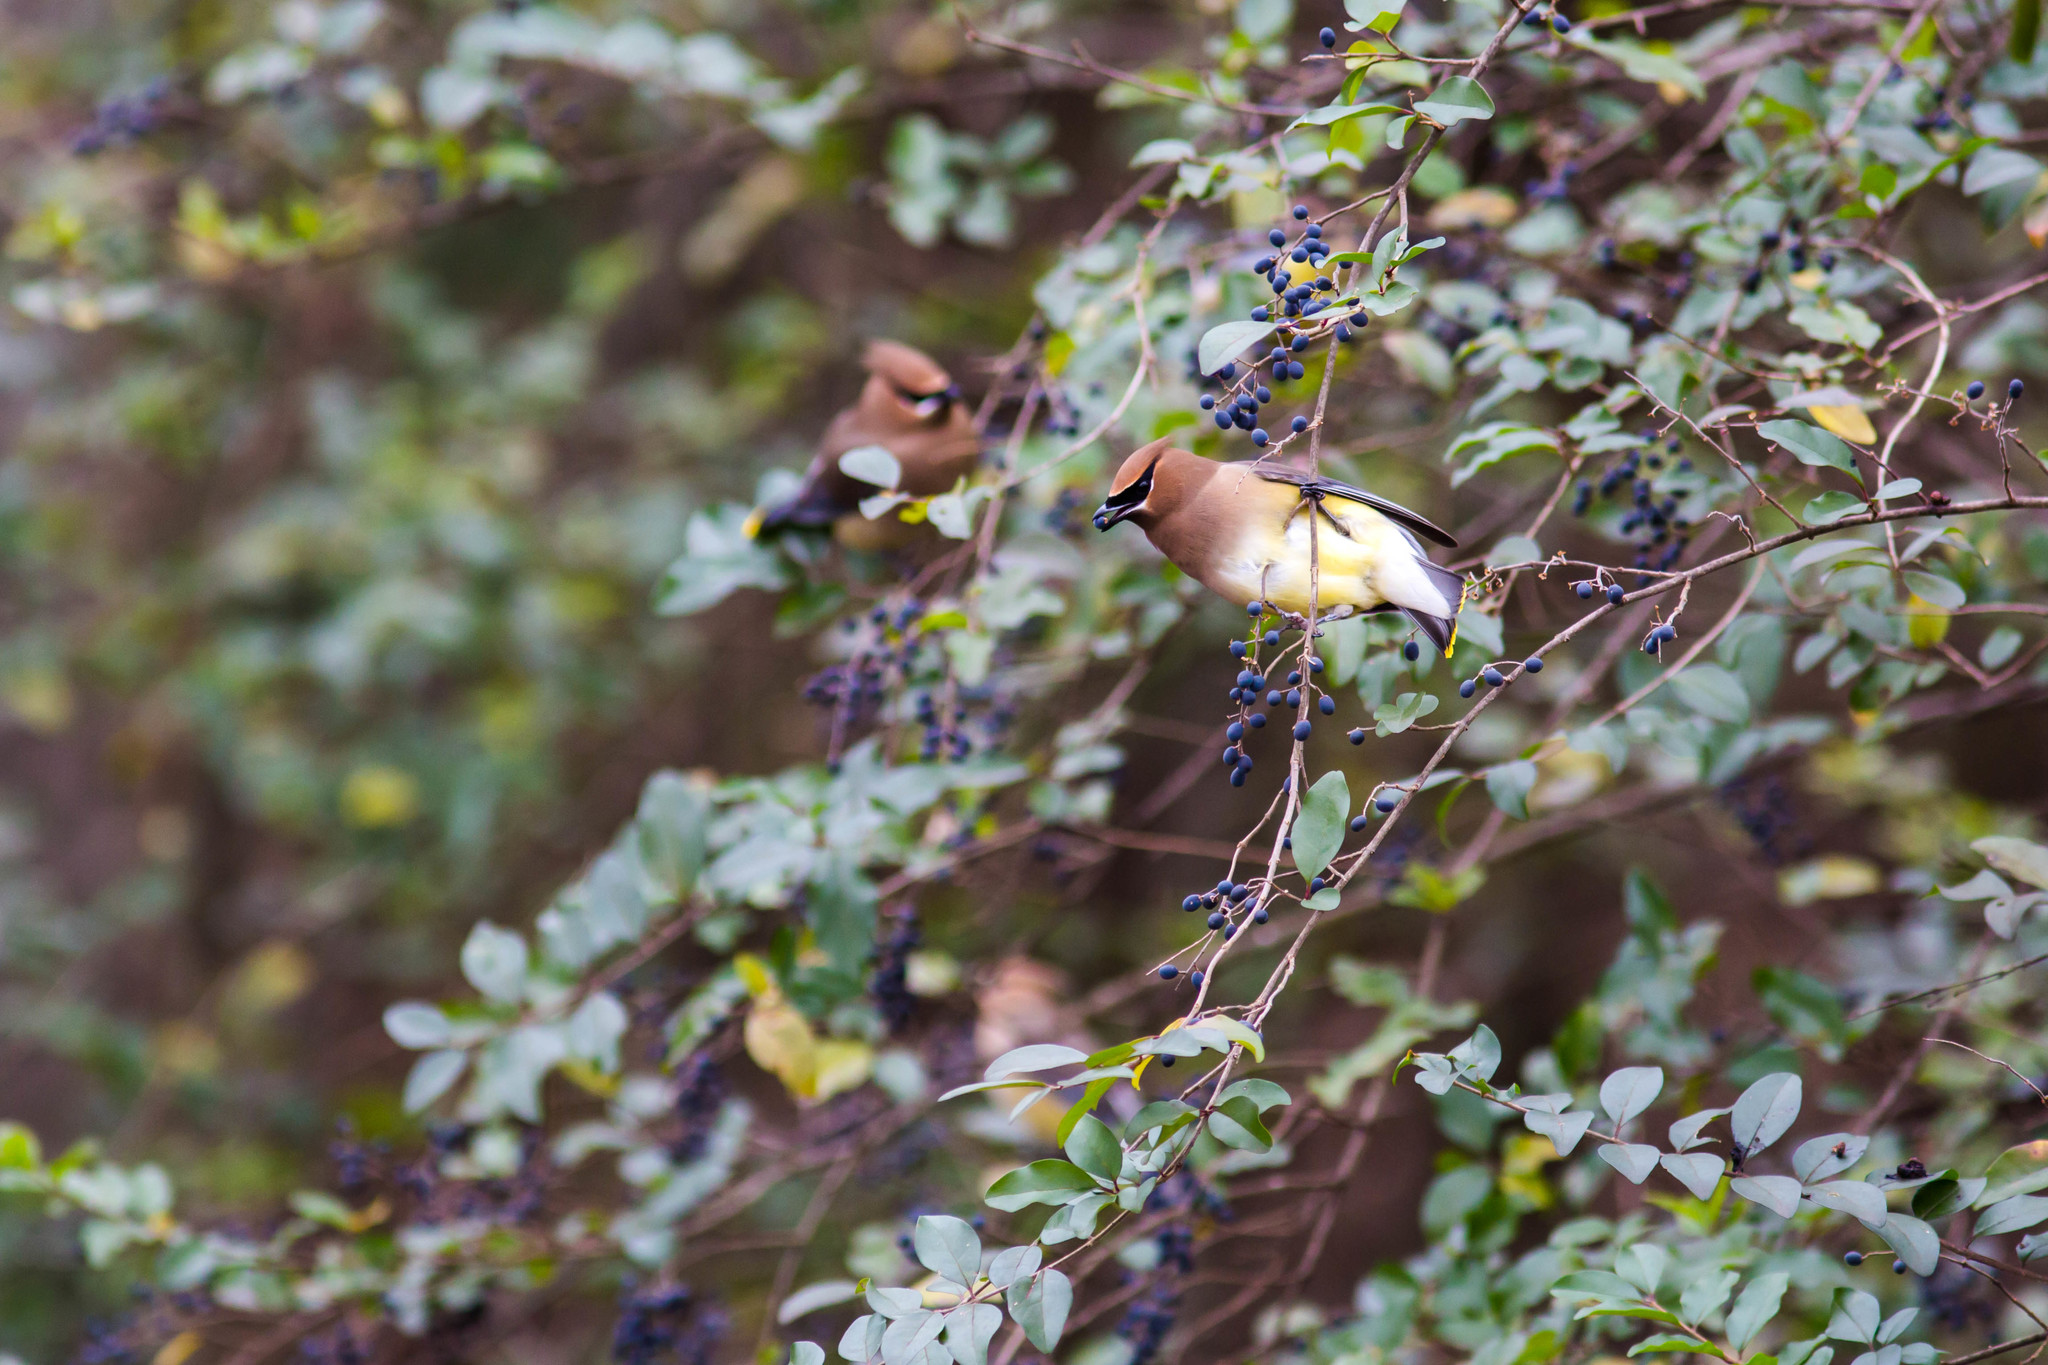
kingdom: Animalia
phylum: Chordata
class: Aves
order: Passeriformes
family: Bombycillidae
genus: Bombycilla
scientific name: Bombycilla cedrorum
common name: Cedar waxwing
